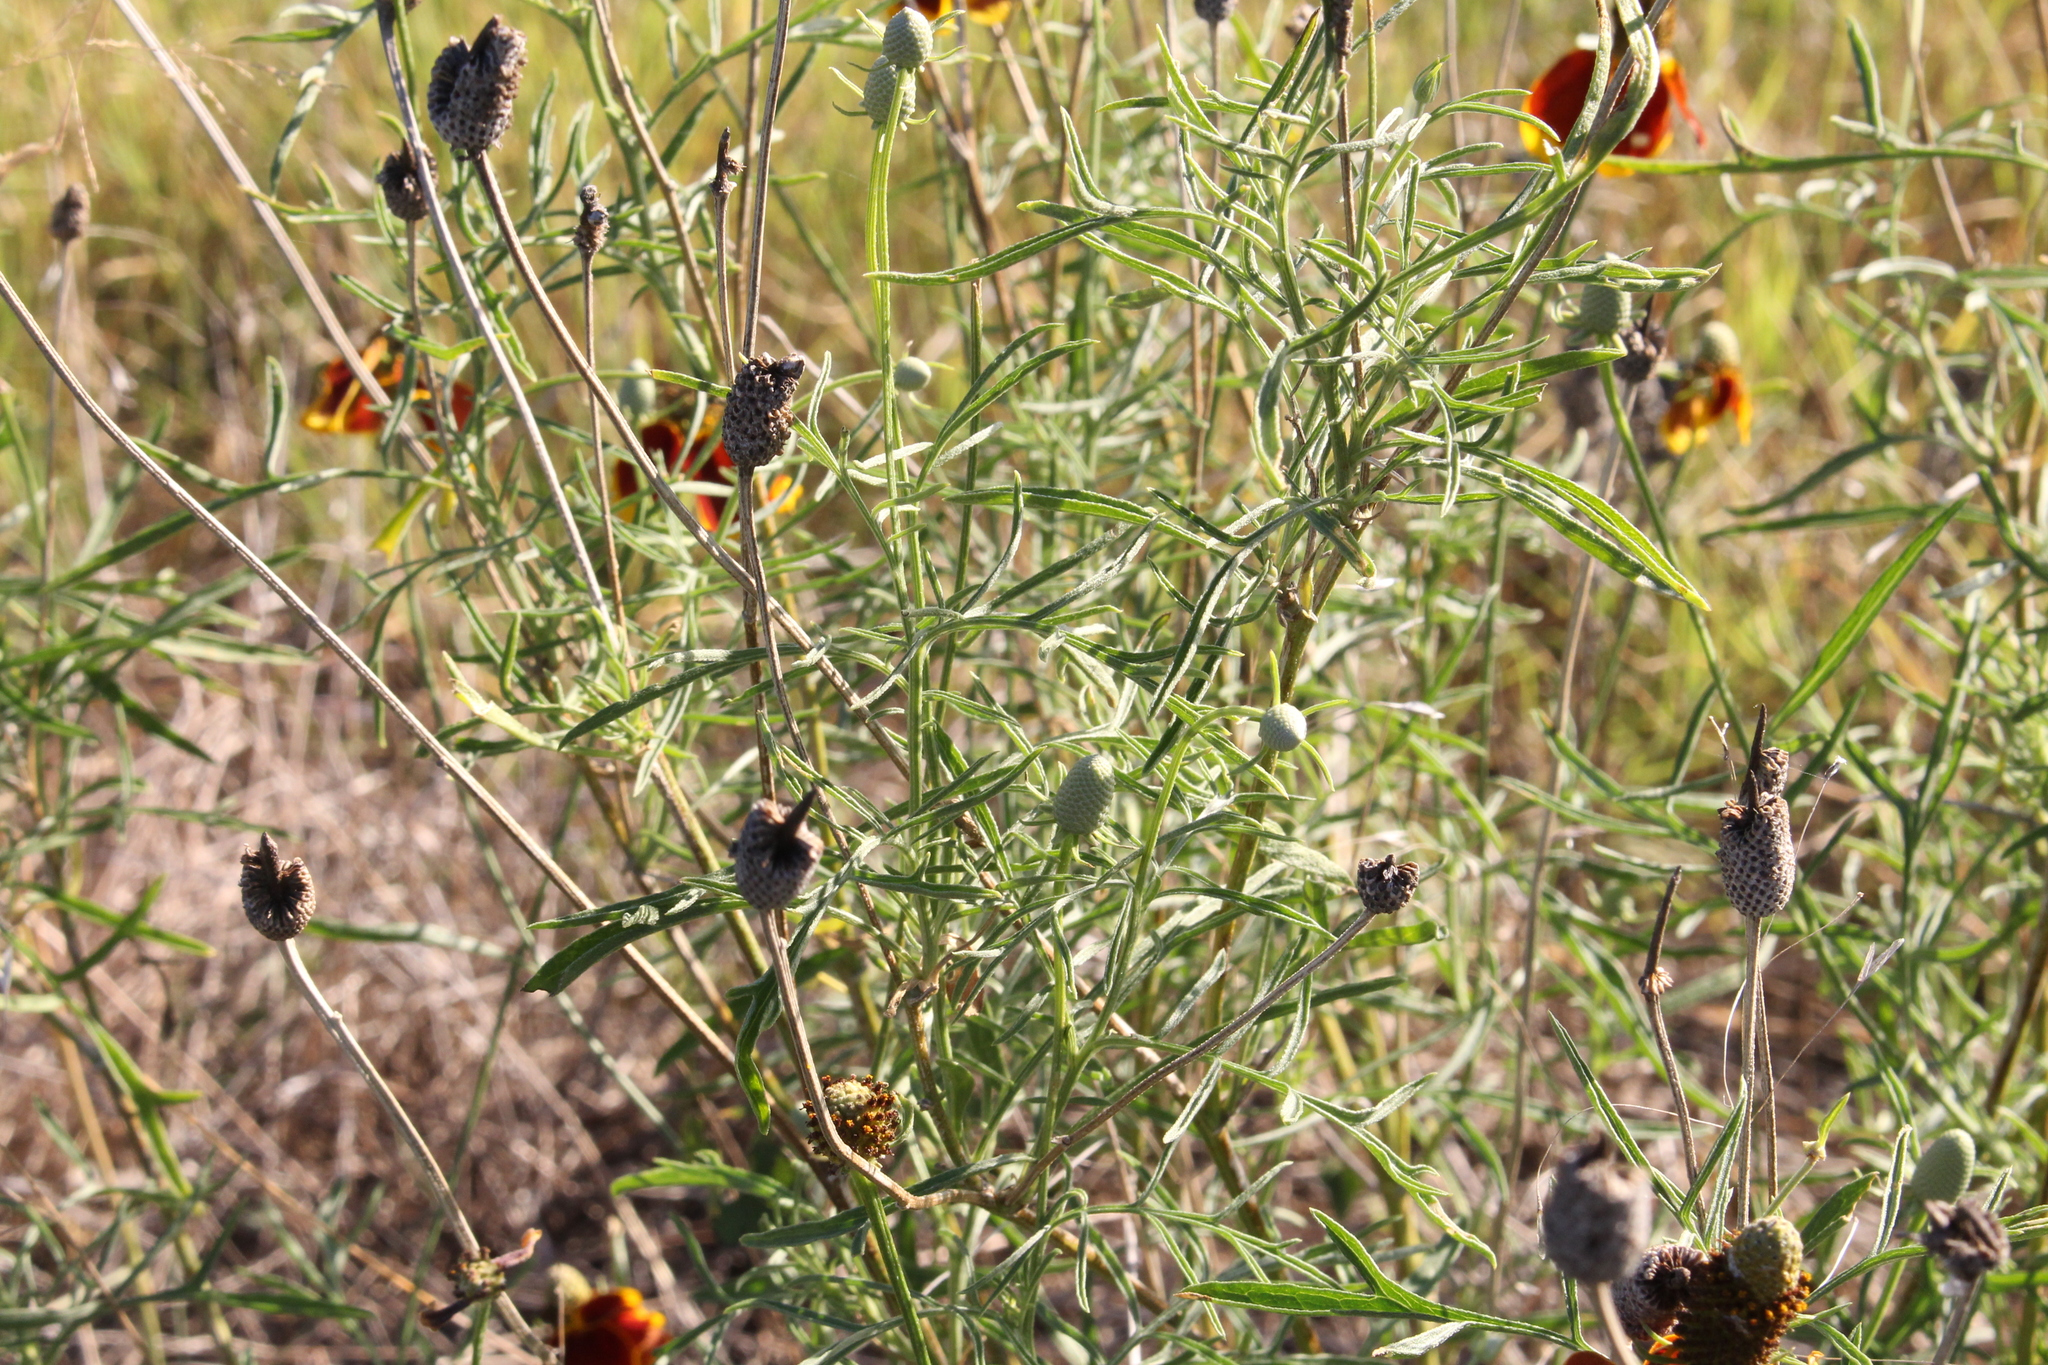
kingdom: Plantae
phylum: Tracheophyta
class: Magnoliopsida
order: Asterales
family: Asteraceae
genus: Ratibida
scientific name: Ratibida columnifera
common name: Prairie coneflower
